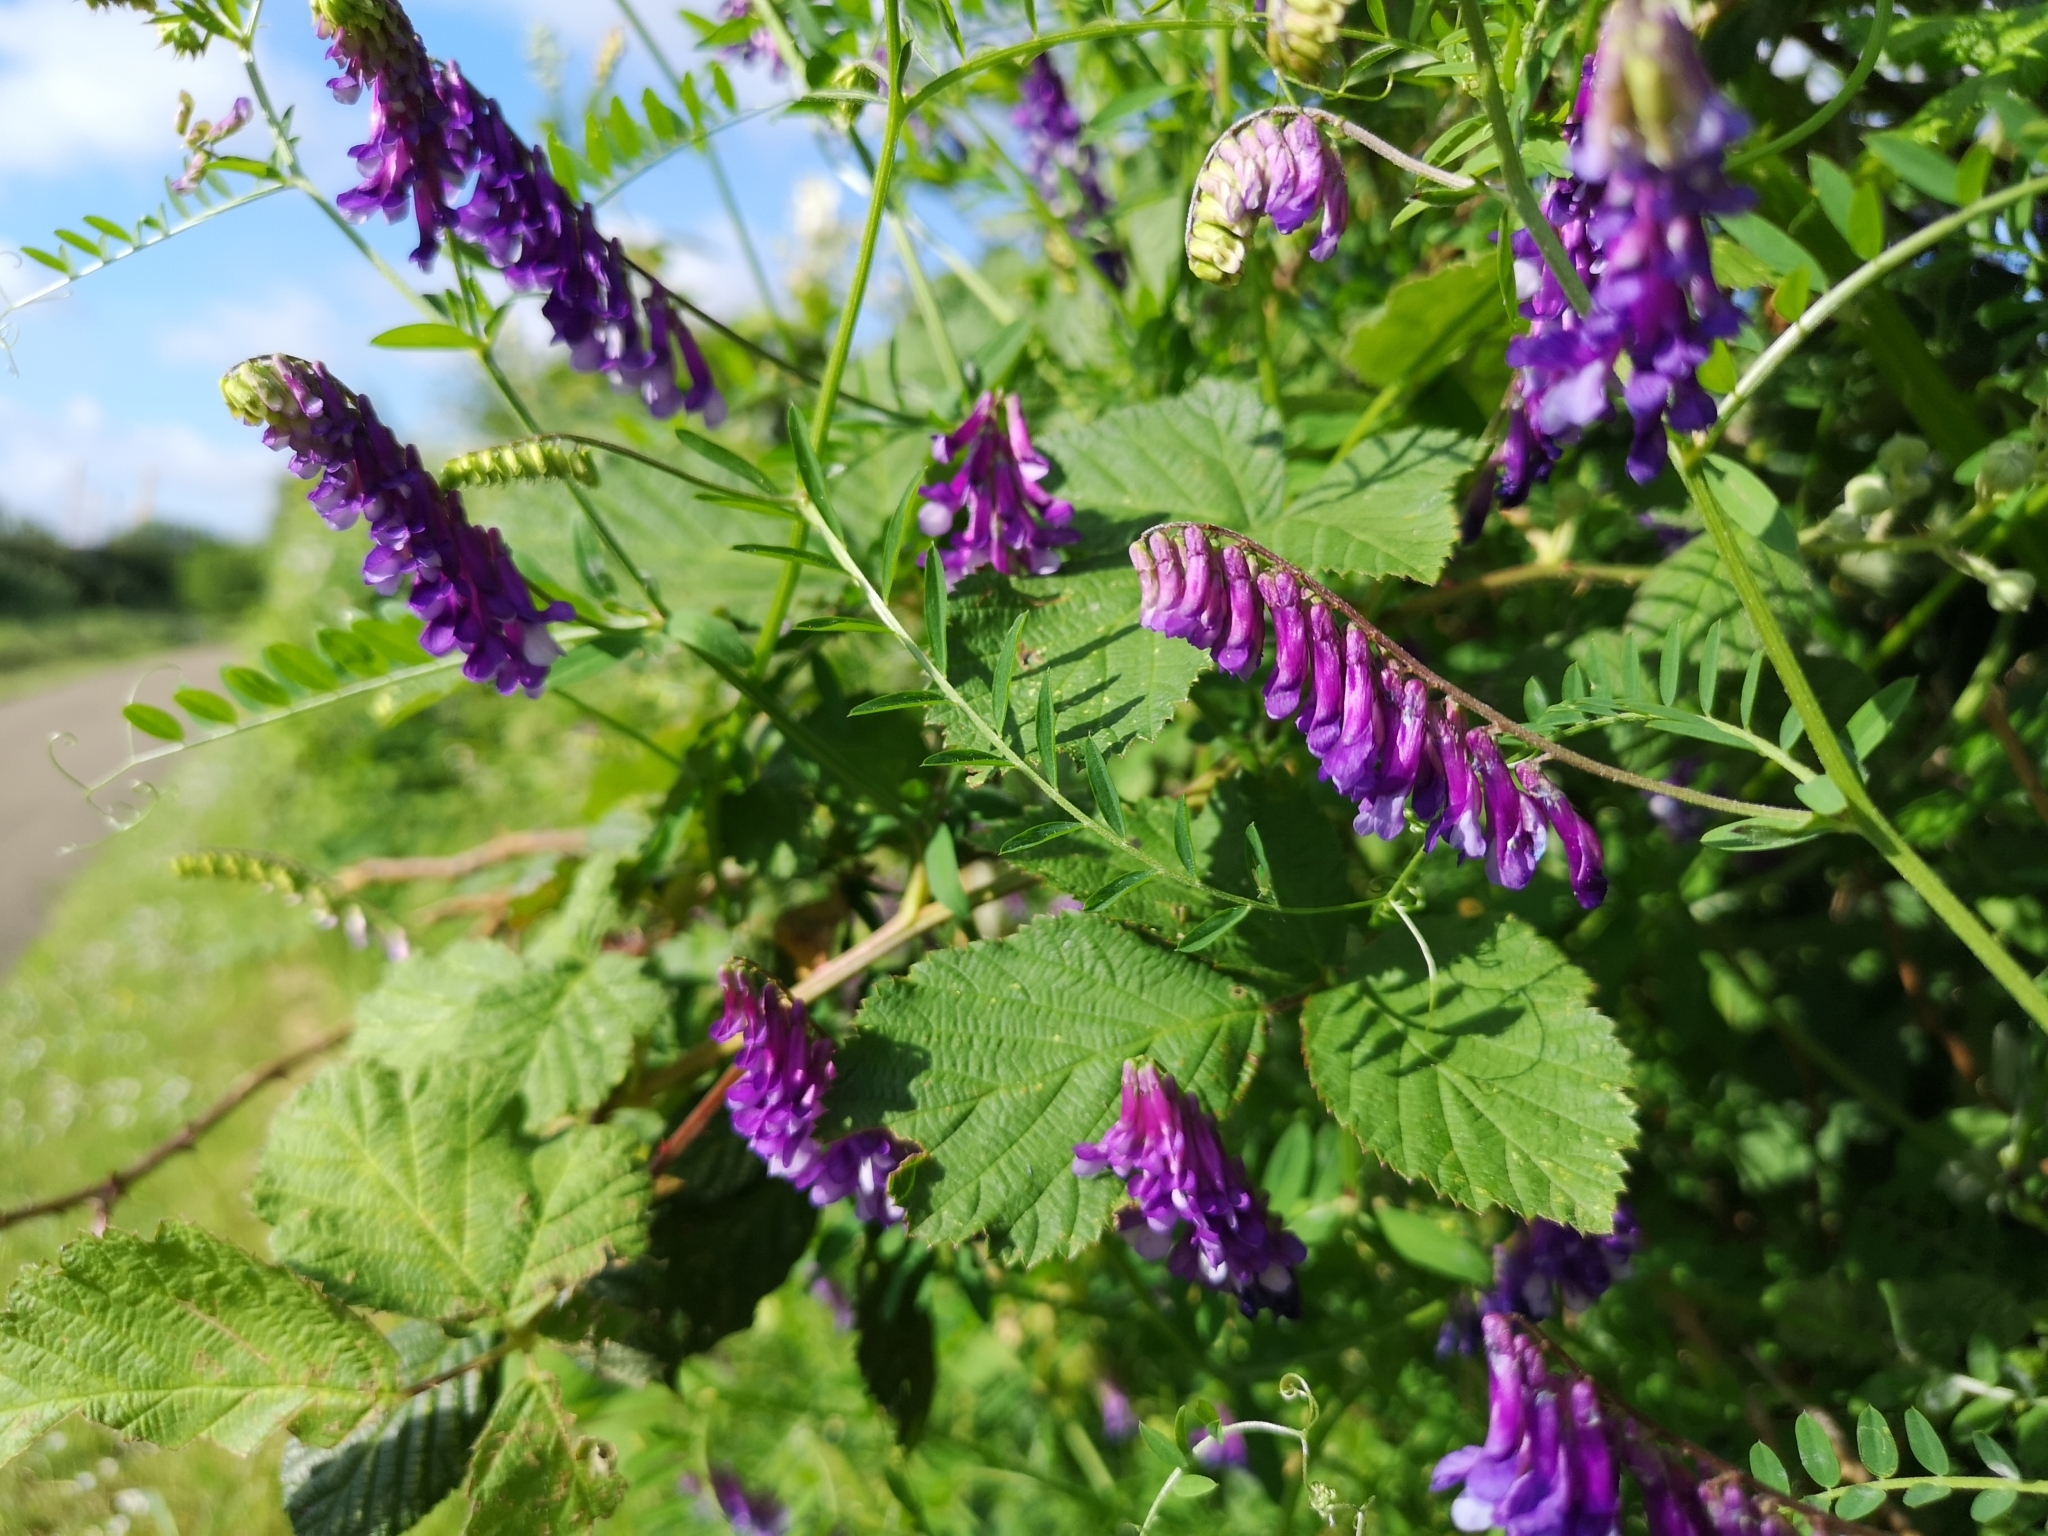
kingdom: Plantae
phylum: Tracheophyta
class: Magnoliopsida
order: Fabales
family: Fabaceae
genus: Vicia
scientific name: Vicia villosa
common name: Fodder vetch
